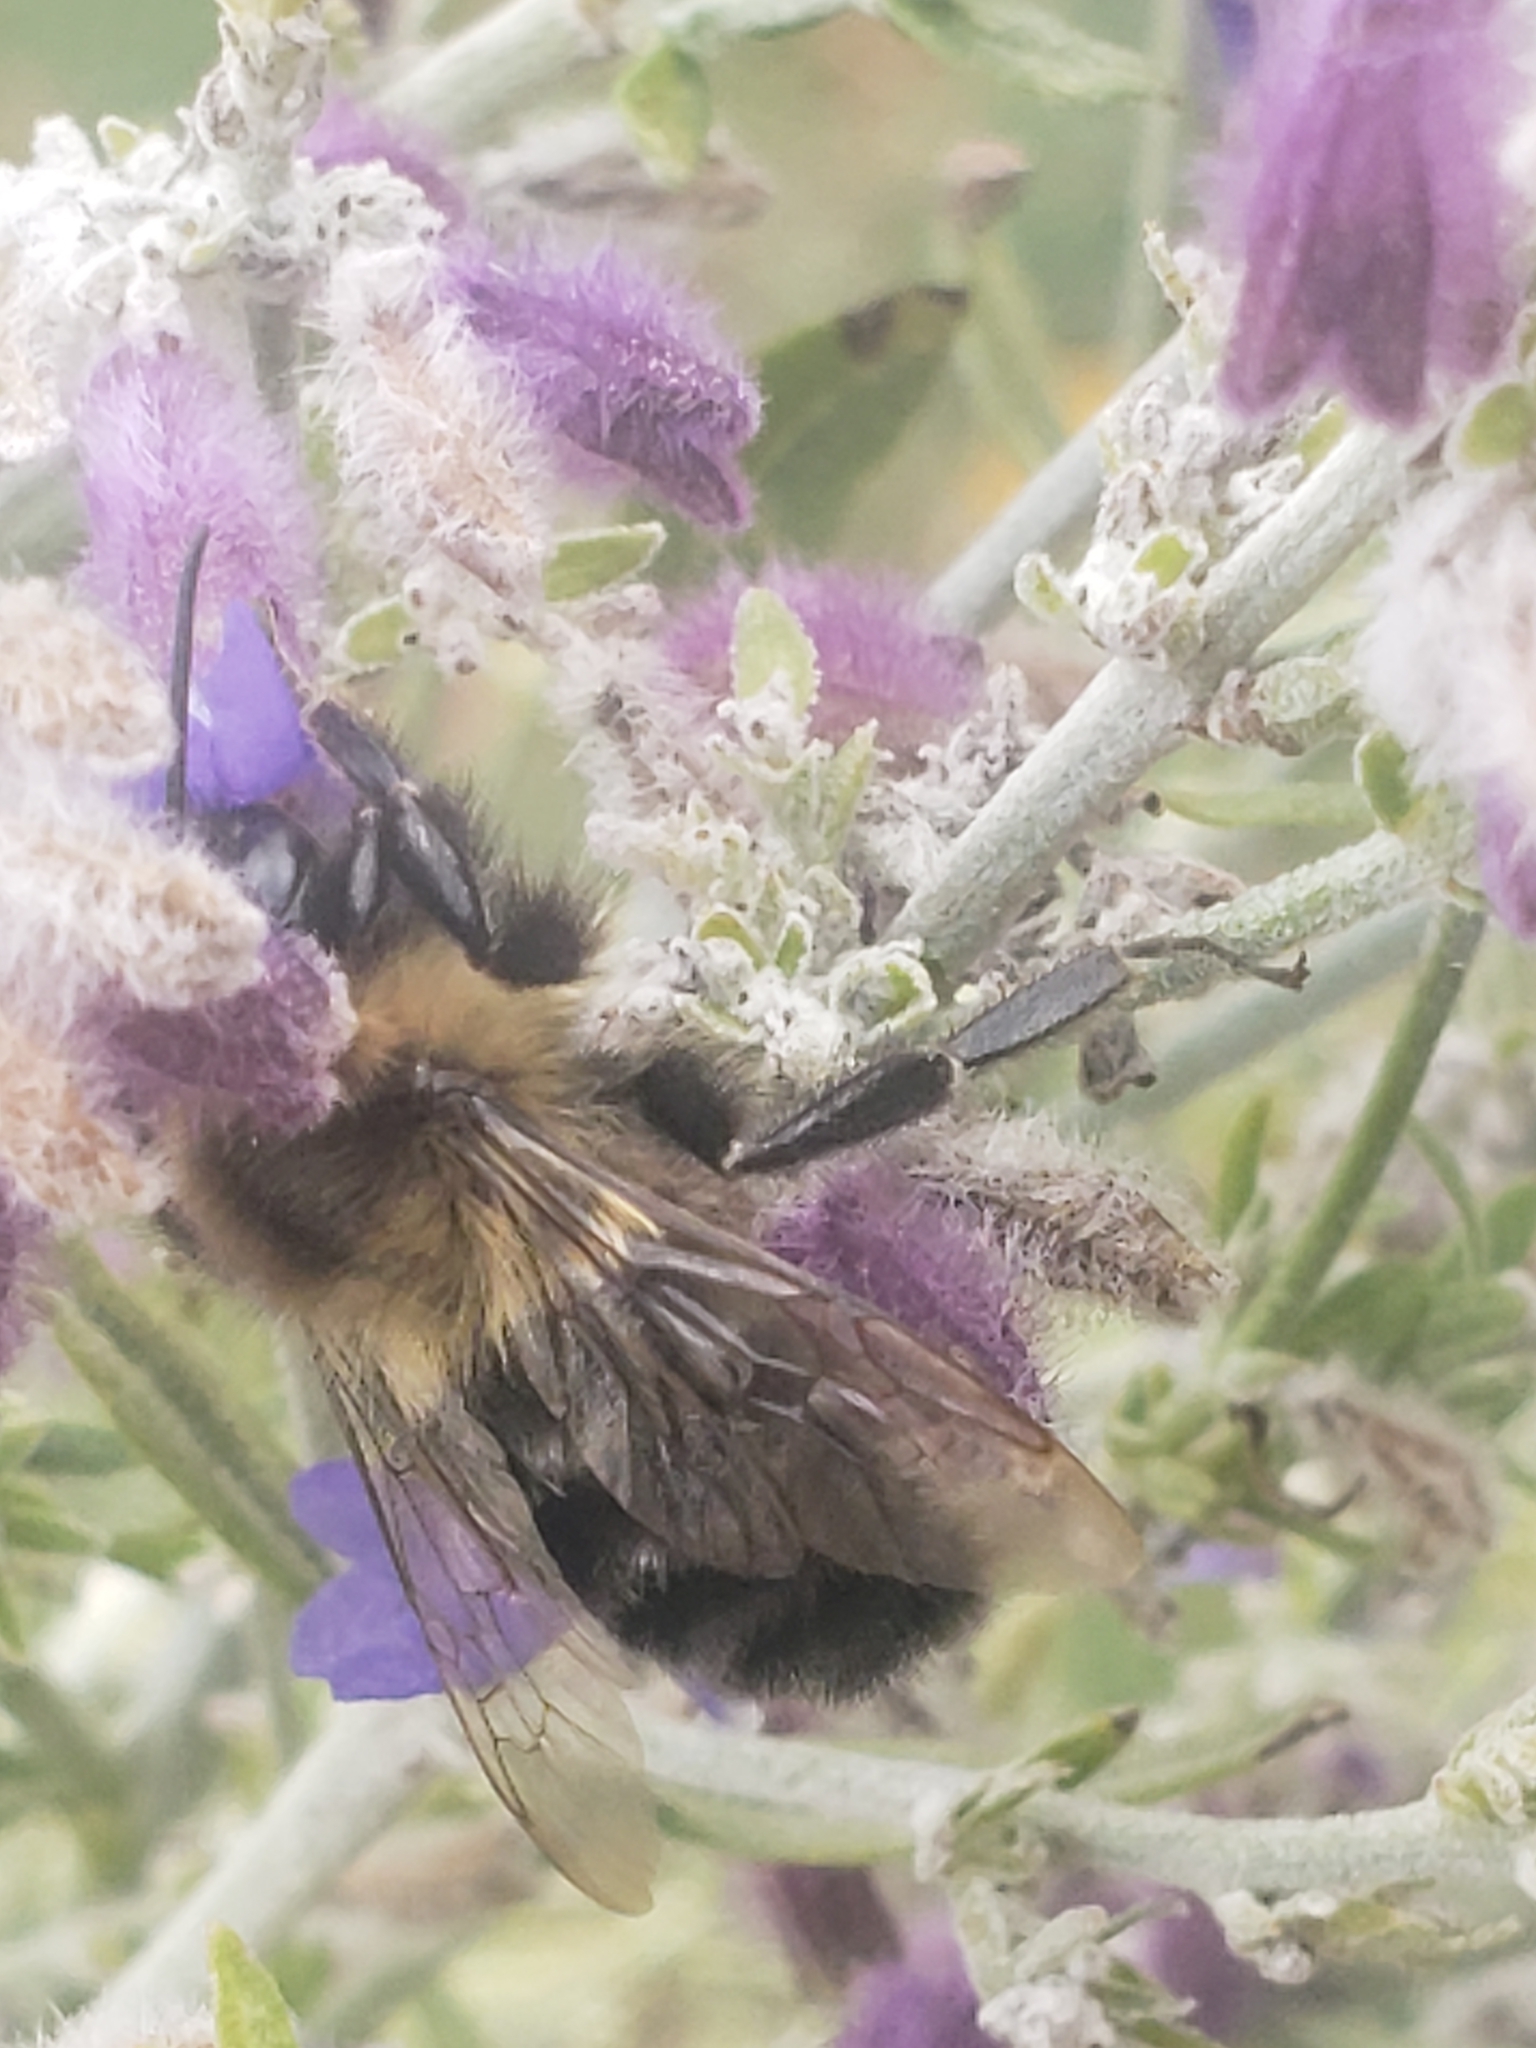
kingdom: Animalia
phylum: Arthropoda
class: Insecta
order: Hymenoptera
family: Apidae
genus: Bombus
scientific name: Bombus impatiens
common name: Common eastern bumble bee
